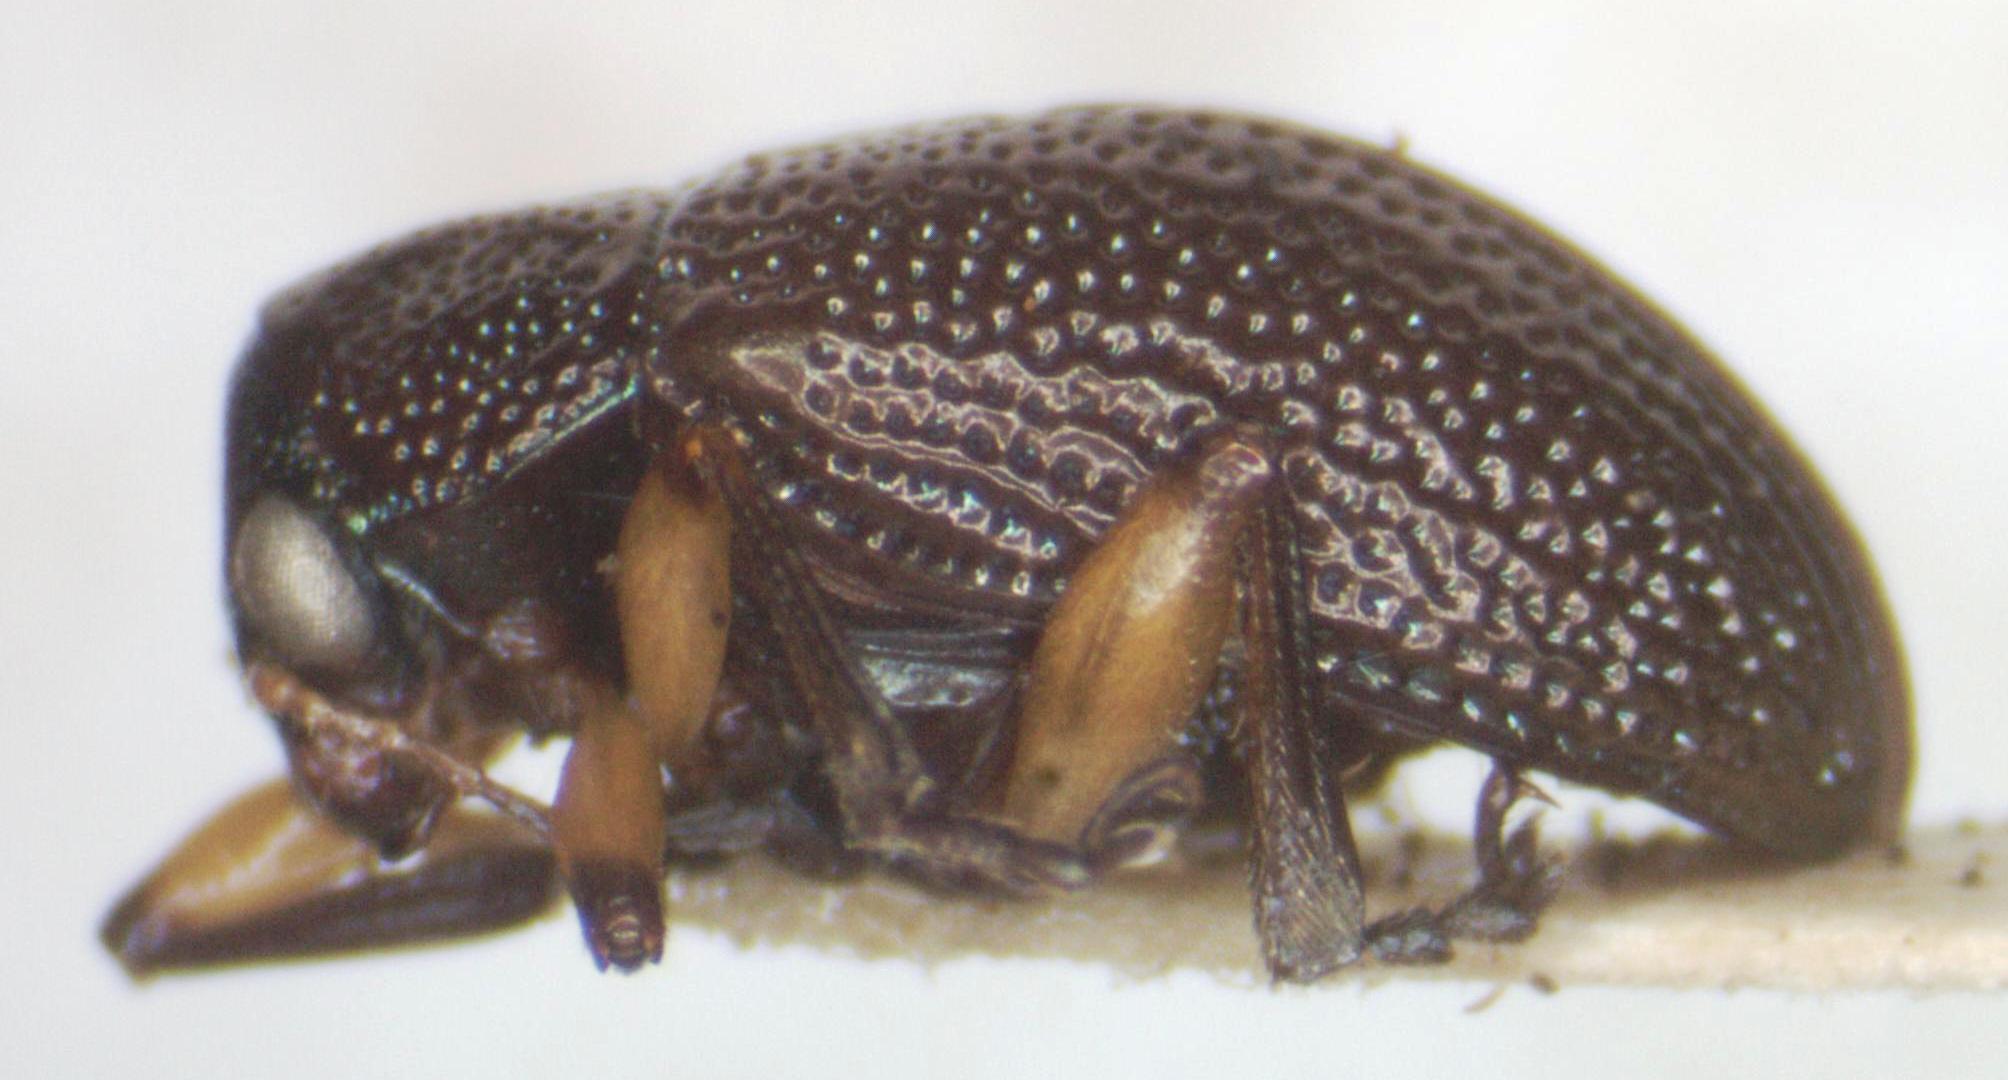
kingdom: Animalia
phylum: Arthropoda
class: Insecta
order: Coleoptera
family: Chrysomelidae
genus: Nodocolaspis
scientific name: Nodocolaspis
